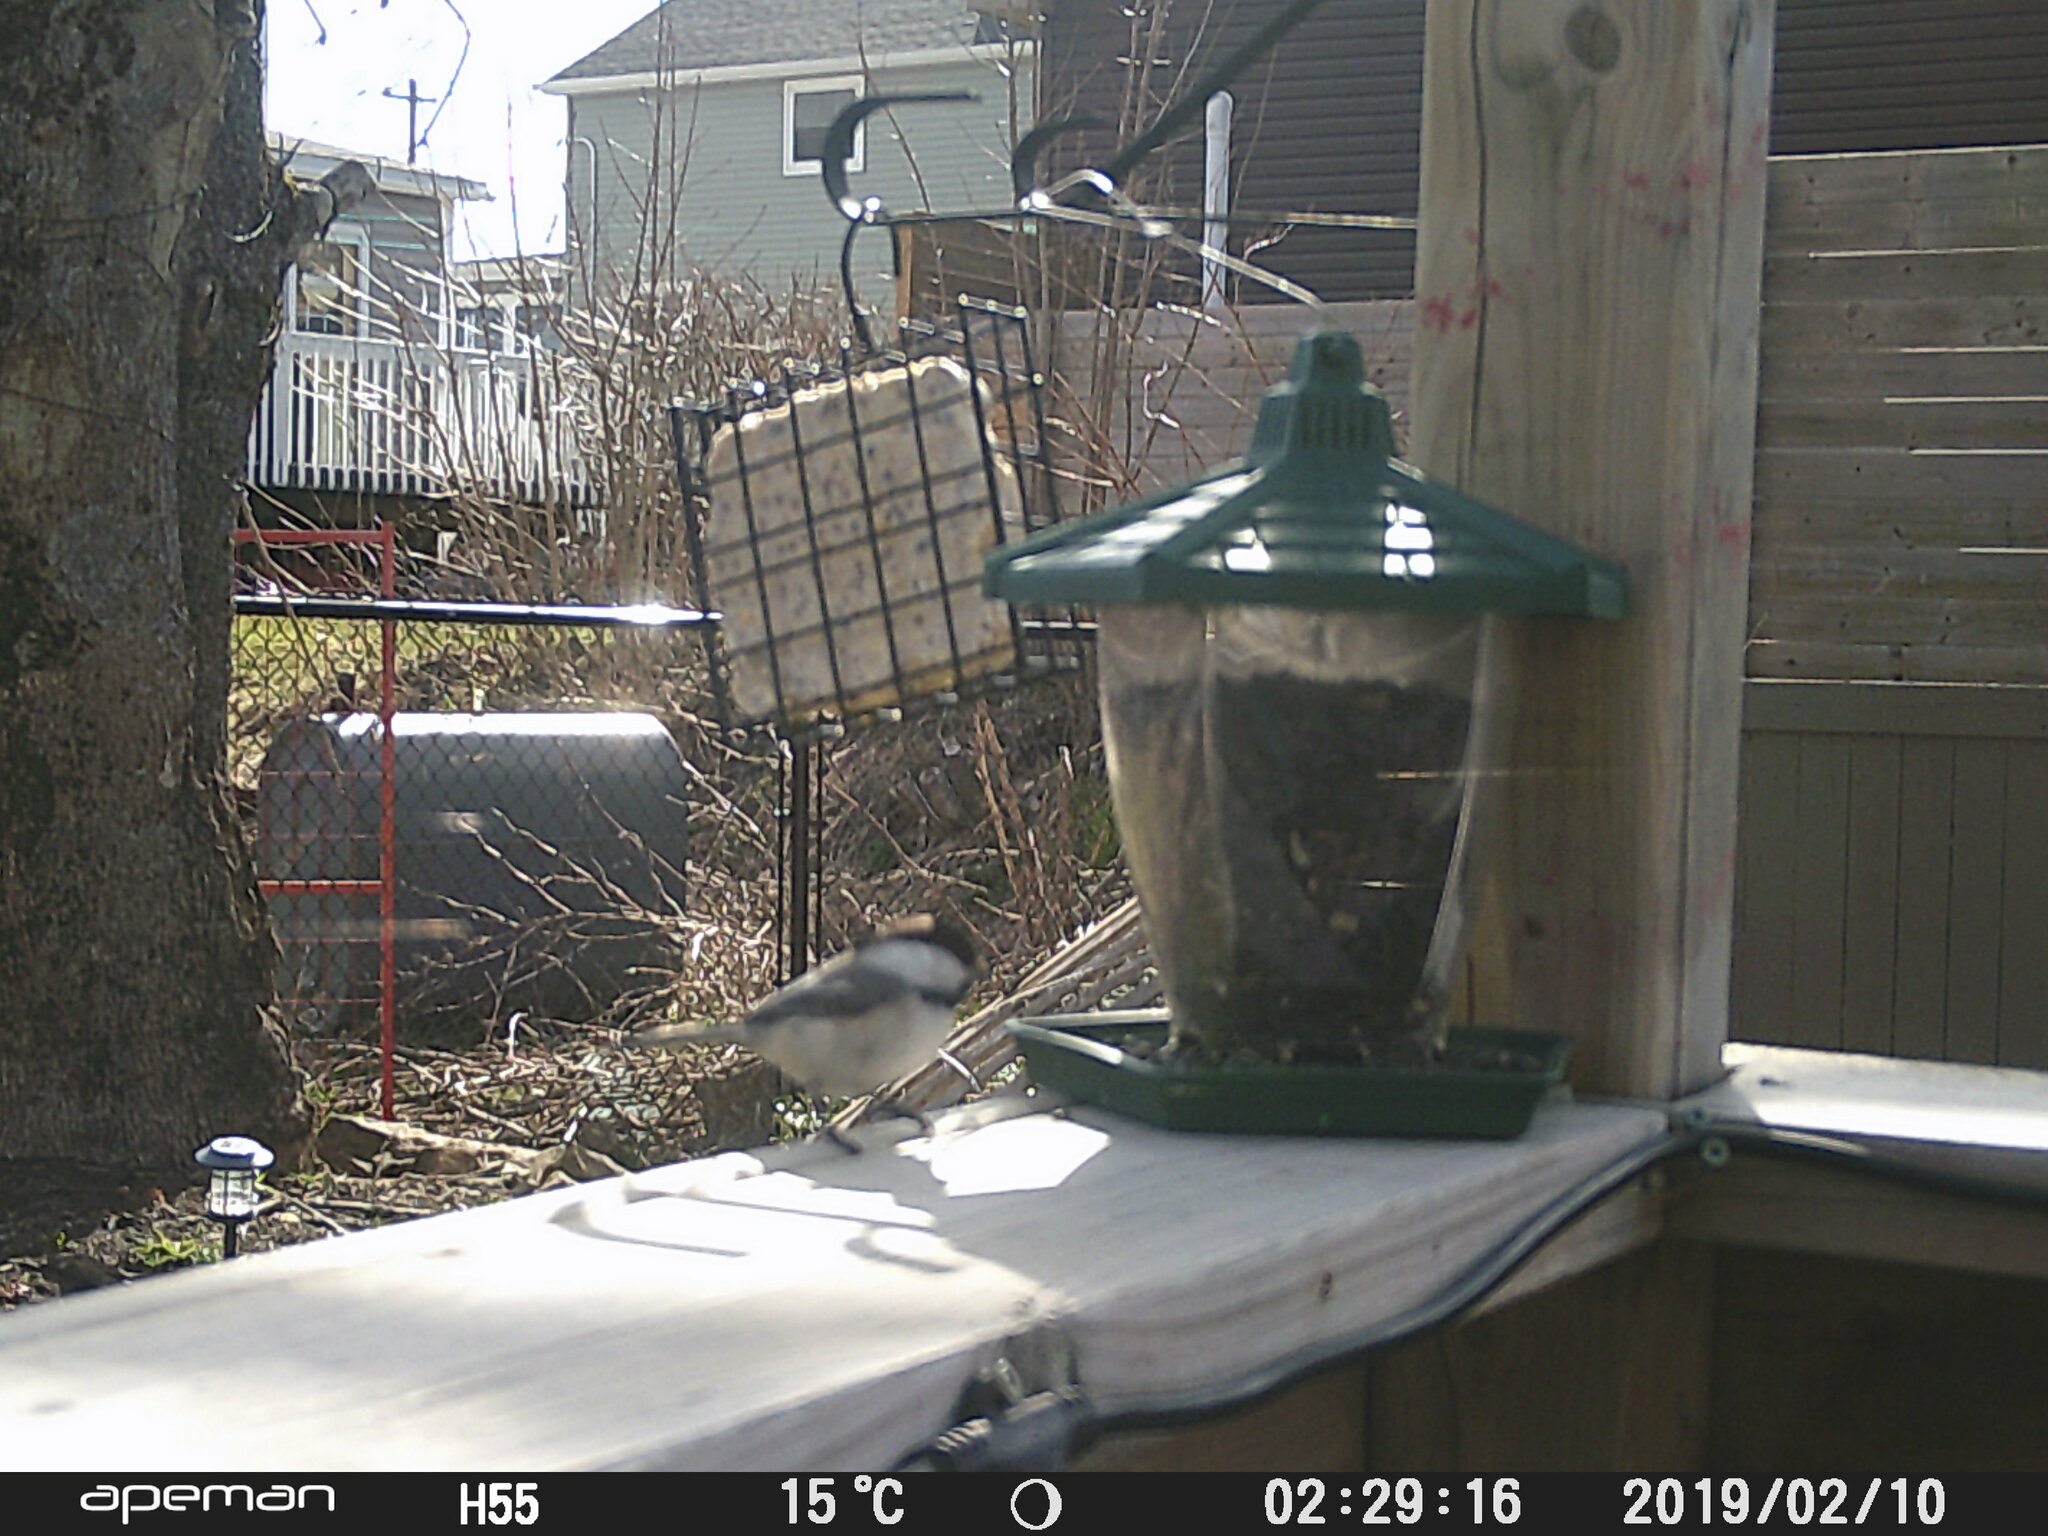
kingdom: Animalia
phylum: Chordata
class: Aves
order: Passeriformes
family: Paridae
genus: Poecile
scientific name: Poecile atricapillus
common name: Black-capped chickadee
